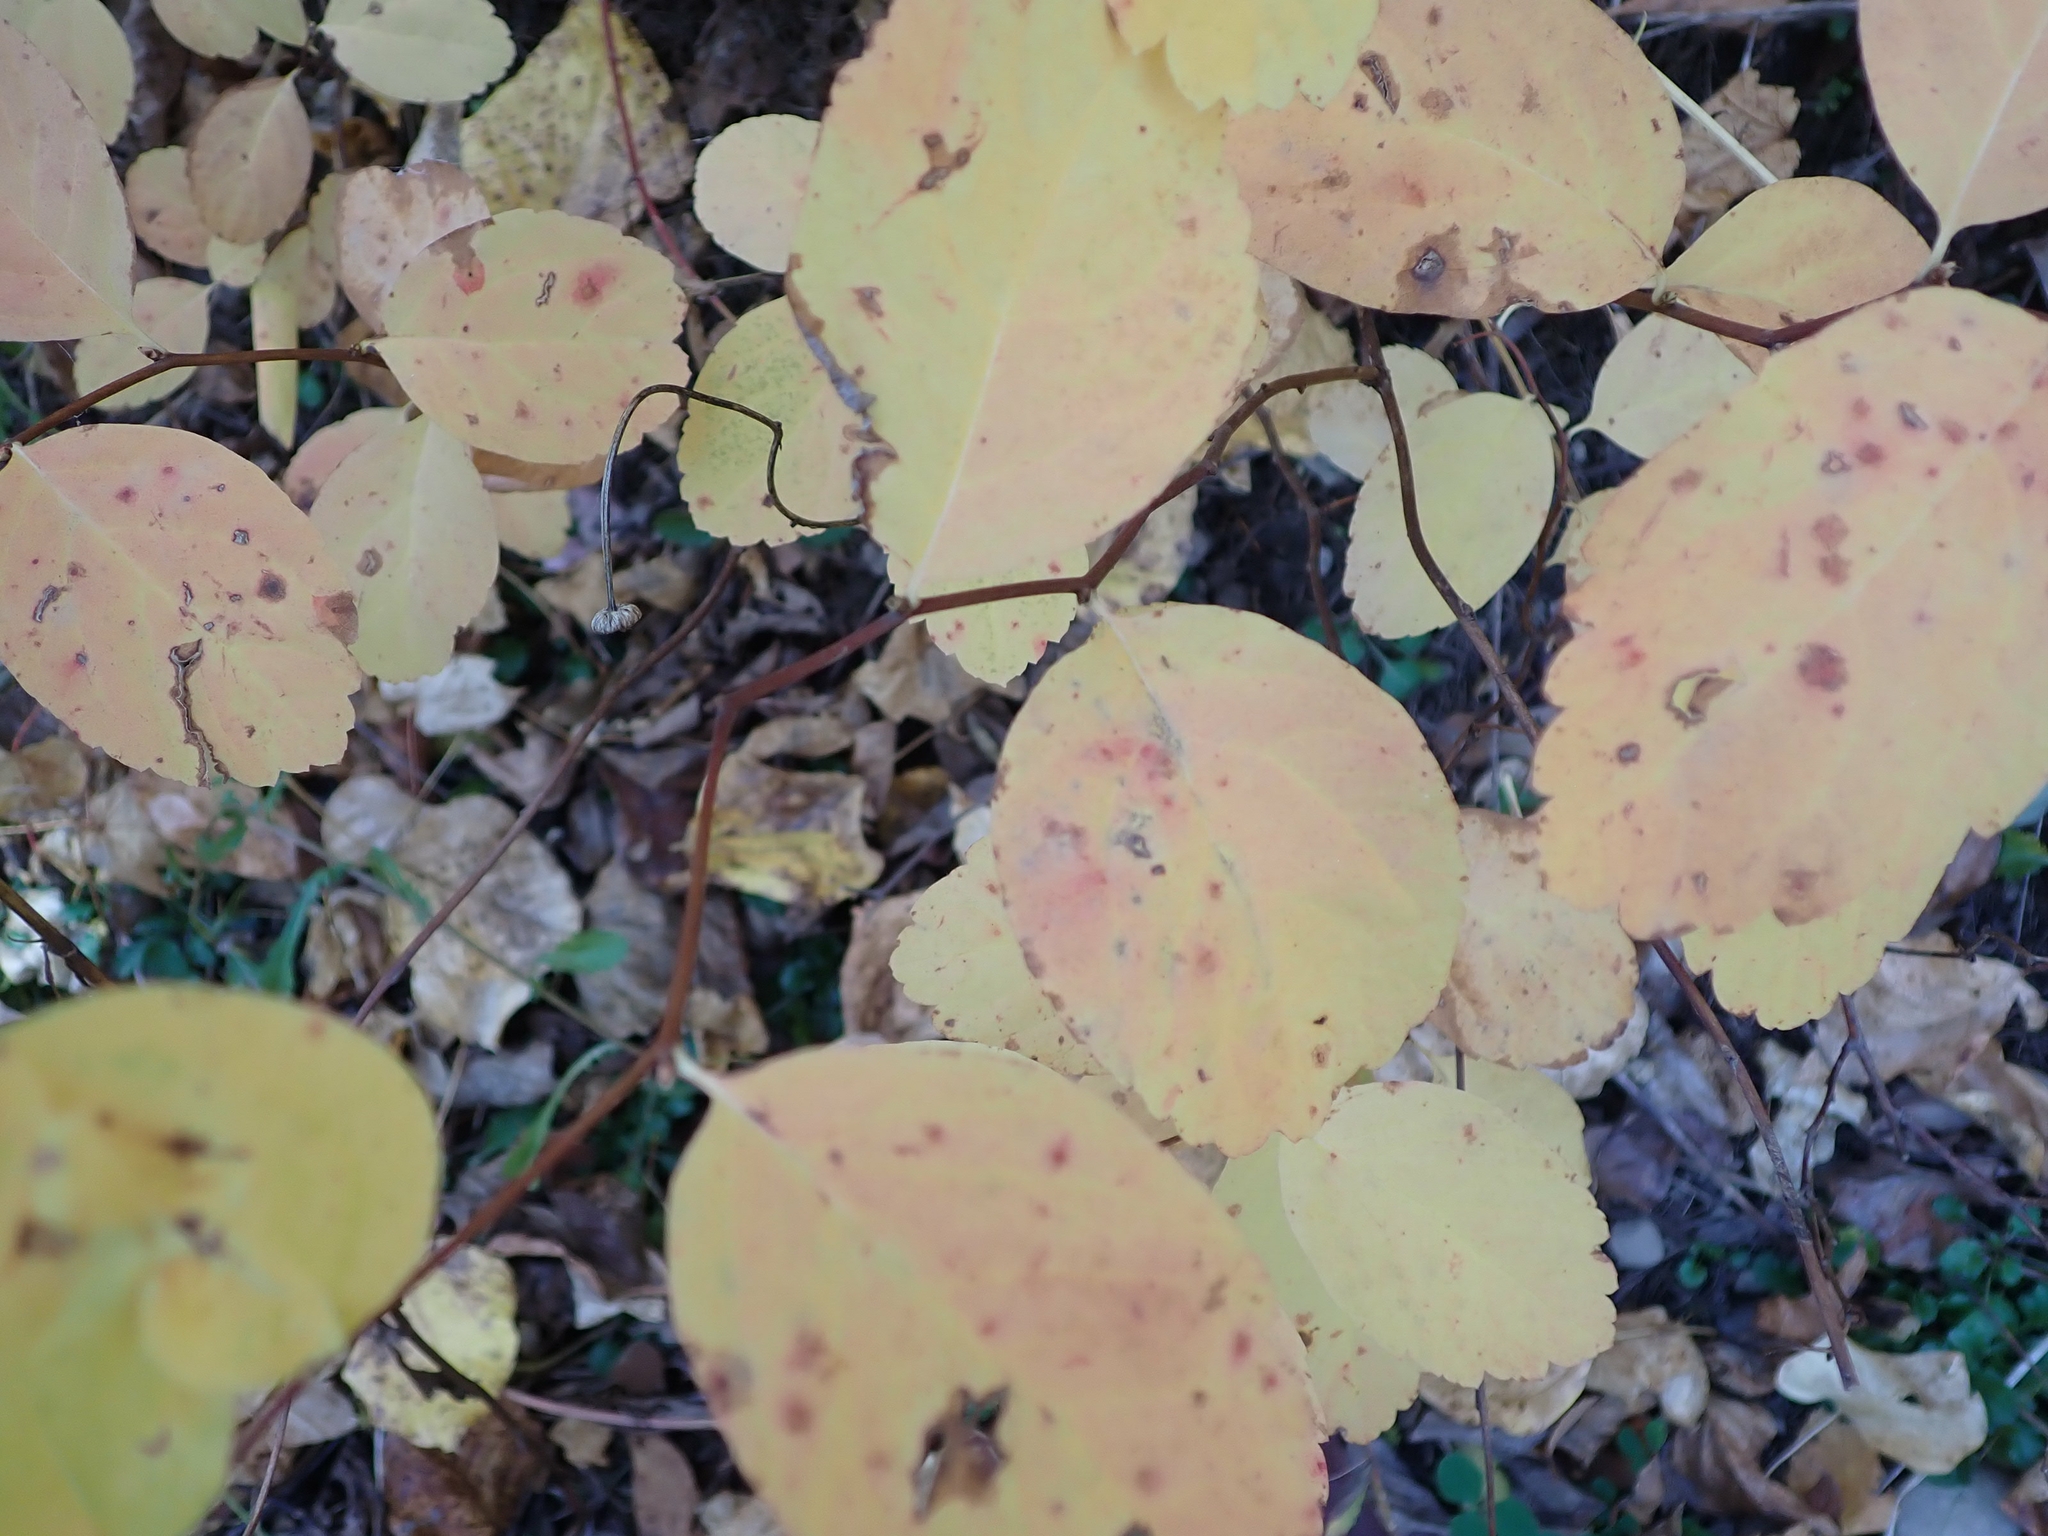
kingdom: Plantae
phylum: Tracheophyta
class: Magnoliopsida
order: Rosales
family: Rosaceae
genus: Spiraea
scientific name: Spiraea lucida
